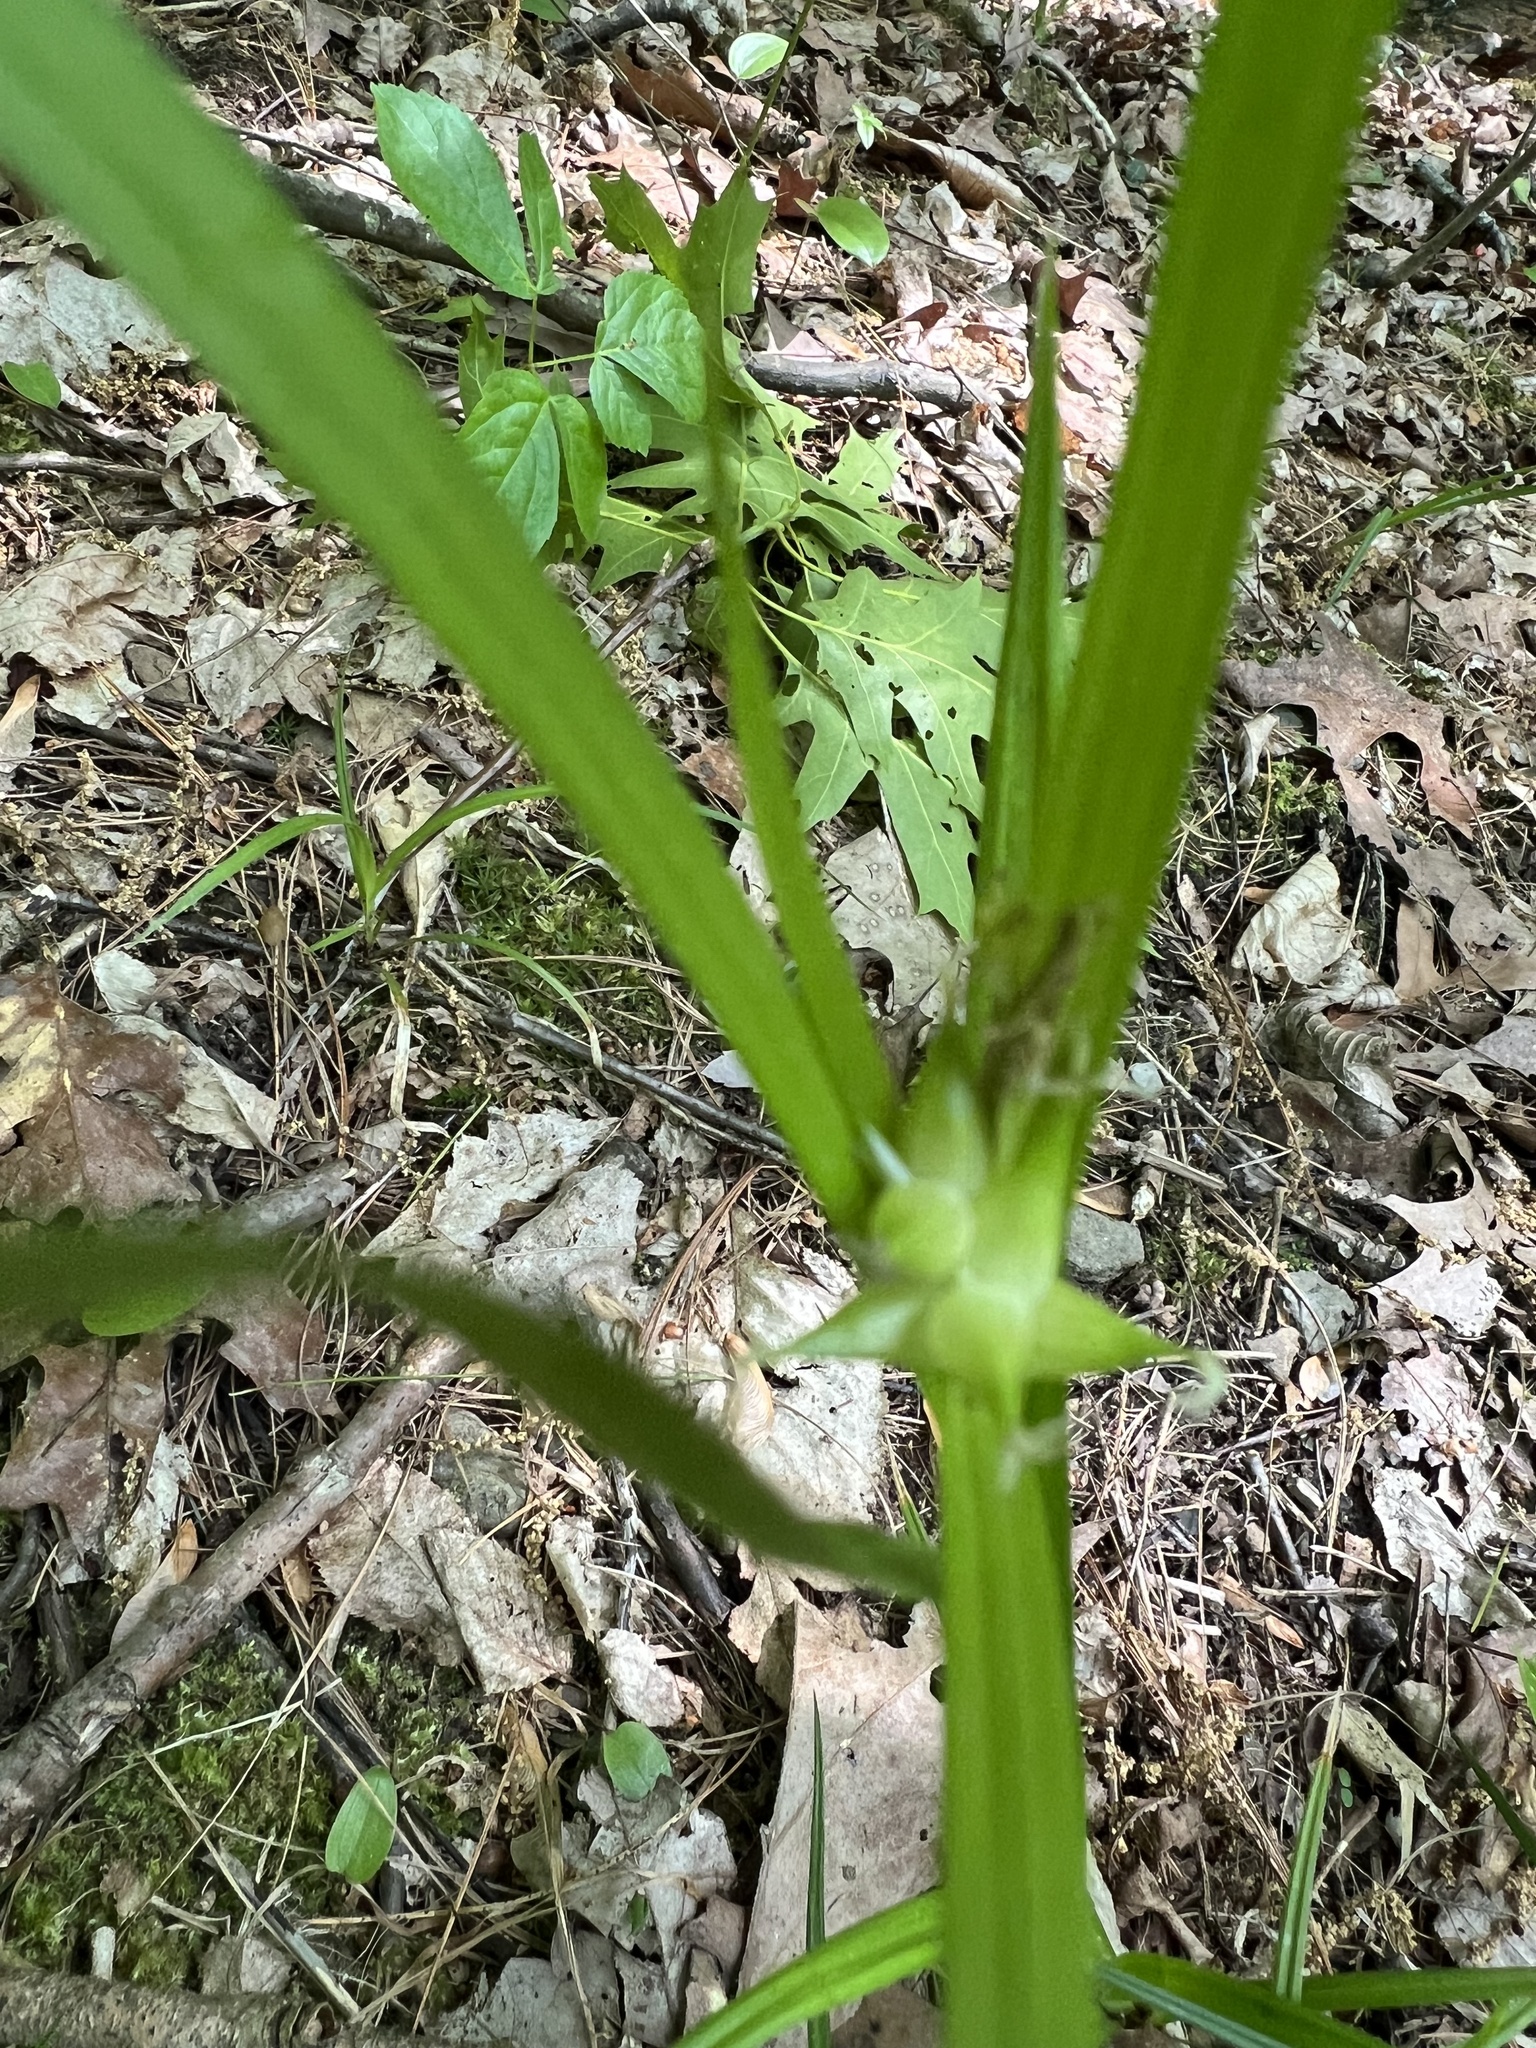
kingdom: Plantae
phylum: Tracheophyta
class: Liliopsida
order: Poales
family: Cyperaceae
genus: Carex
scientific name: Carex intumescens
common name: Greater bladder sedge
